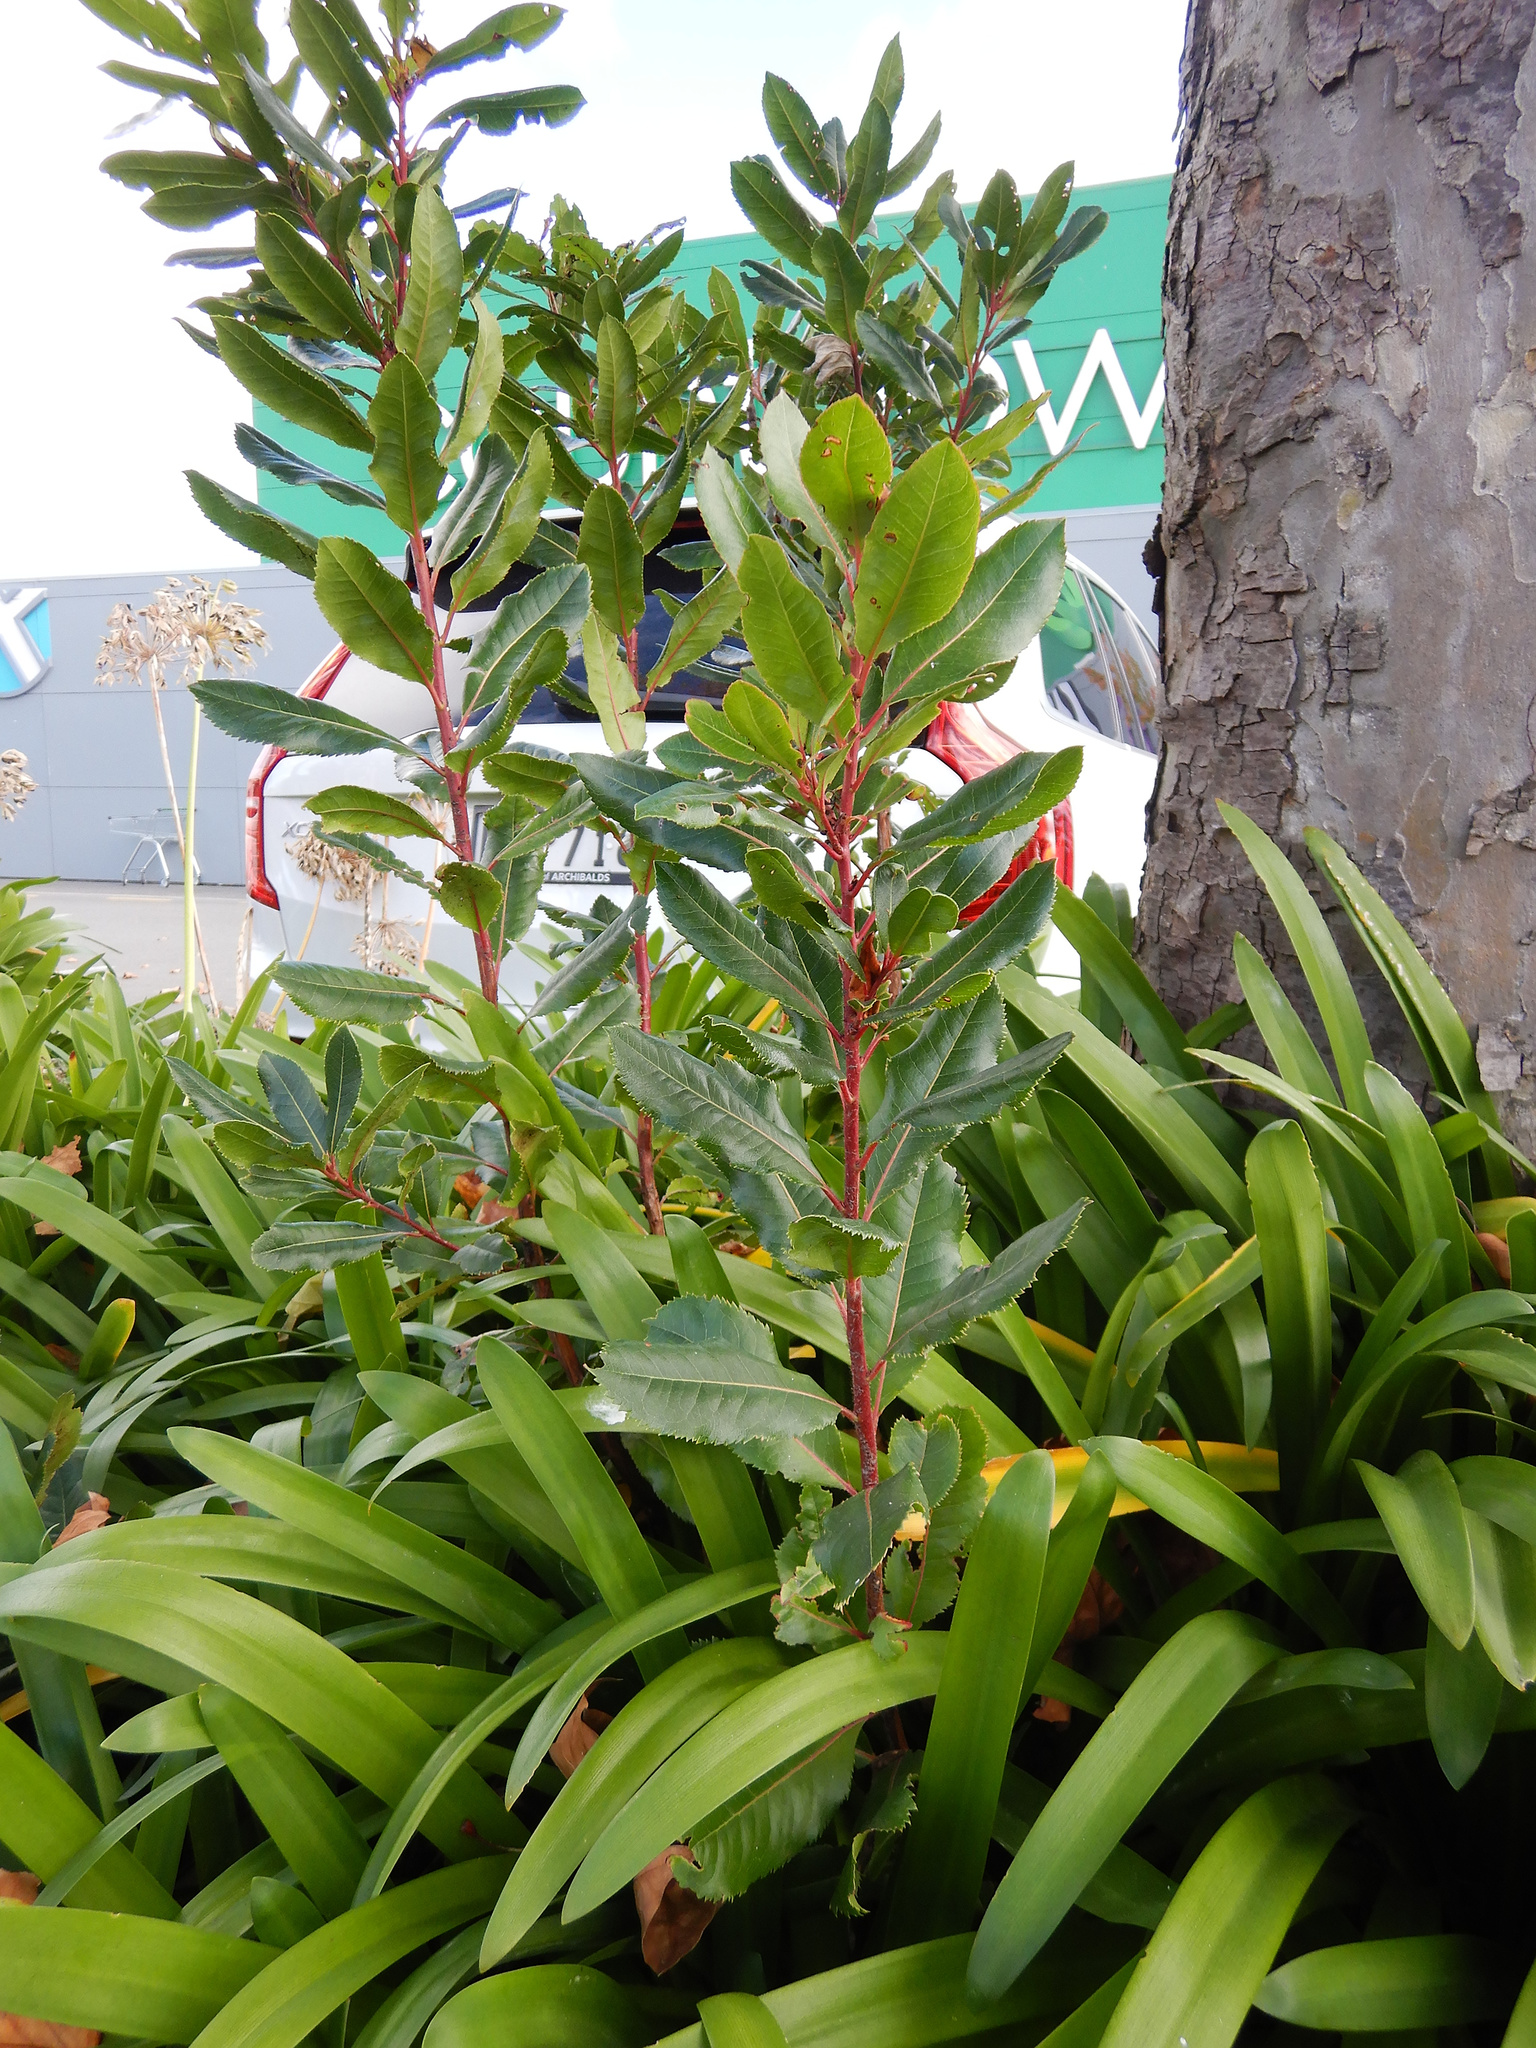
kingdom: Plantae
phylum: Tracheophyta
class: Magnoliopsida
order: Ericales
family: Ericaceae
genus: Arbutus
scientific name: Arbutus unedo
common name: Strawberry-tree
